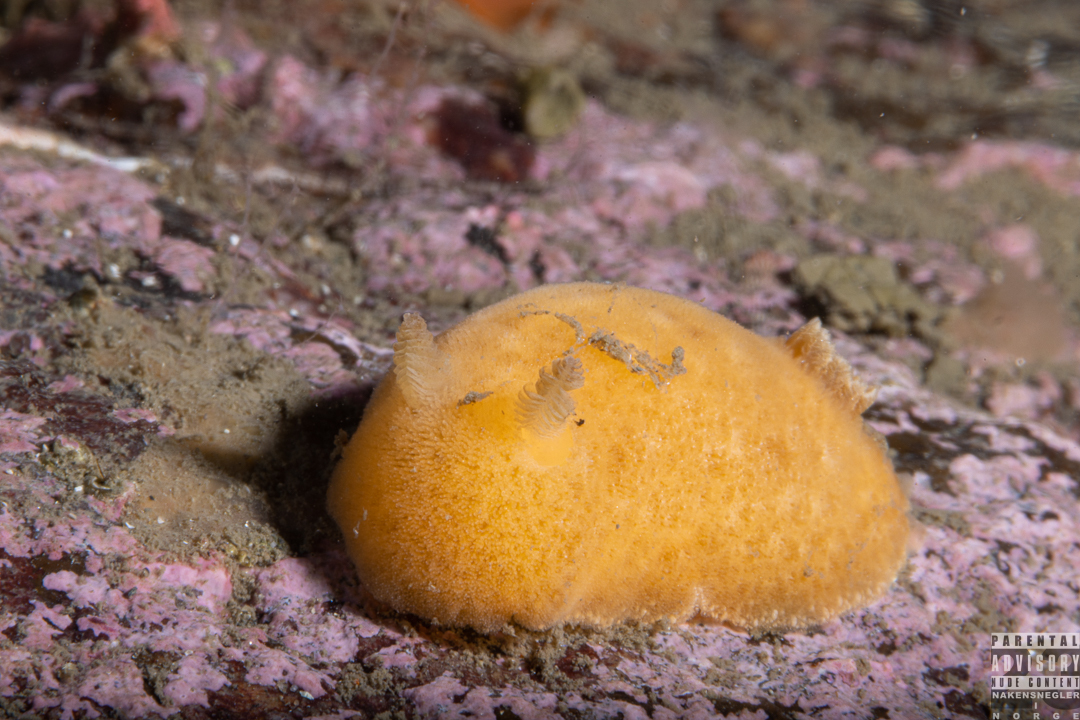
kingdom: Animalia
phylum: Mollusca
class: Gastropoda
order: Nudibranchia
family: Discodorididae
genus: Jorunna
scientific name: Jorunna tomentosa
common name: Grey sea slug
